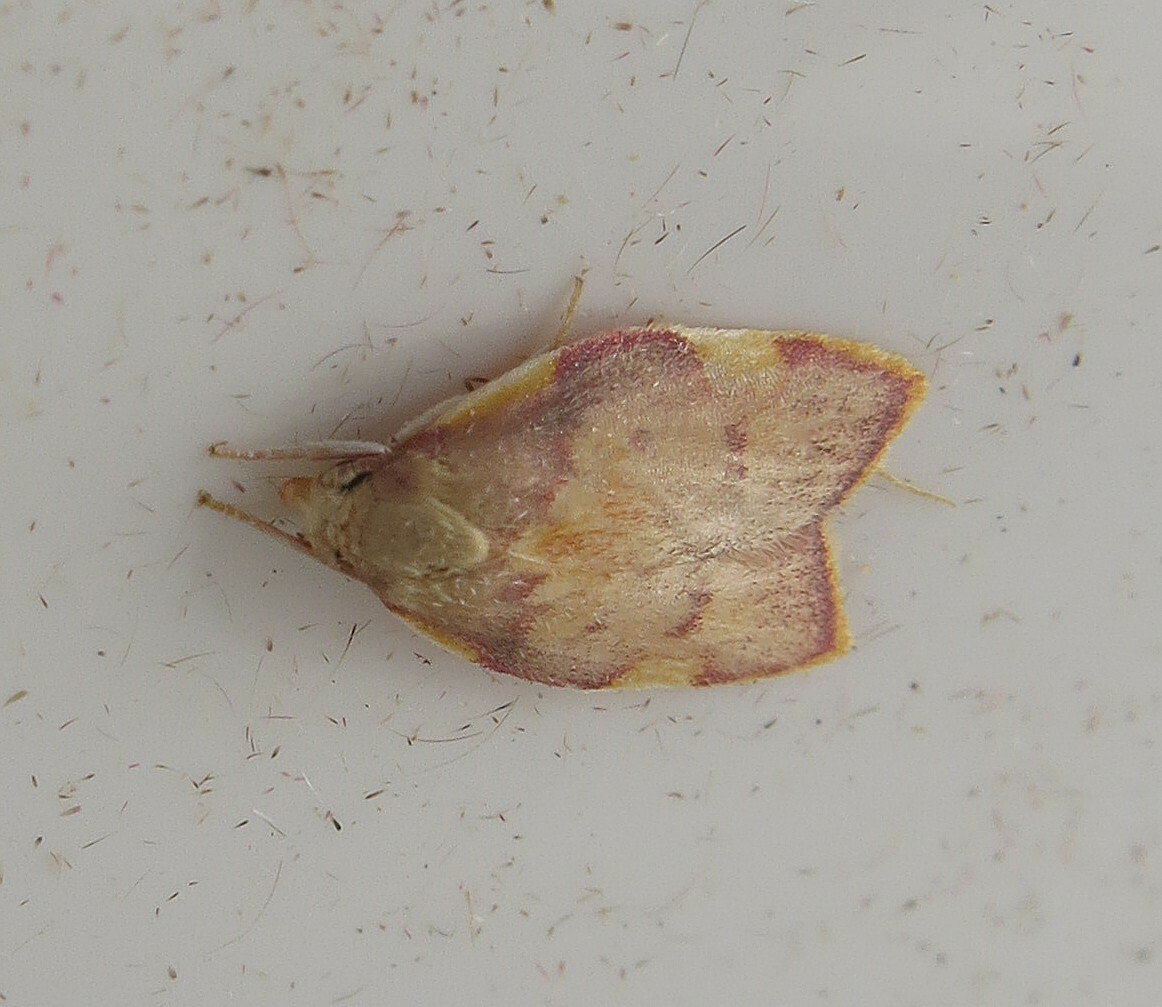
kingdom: Animalia
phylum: Arthropoda
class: Insecta
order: Lepidoptera
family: Peleopodidae
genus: Carcina
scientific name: Carcina quercana
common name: Moth
